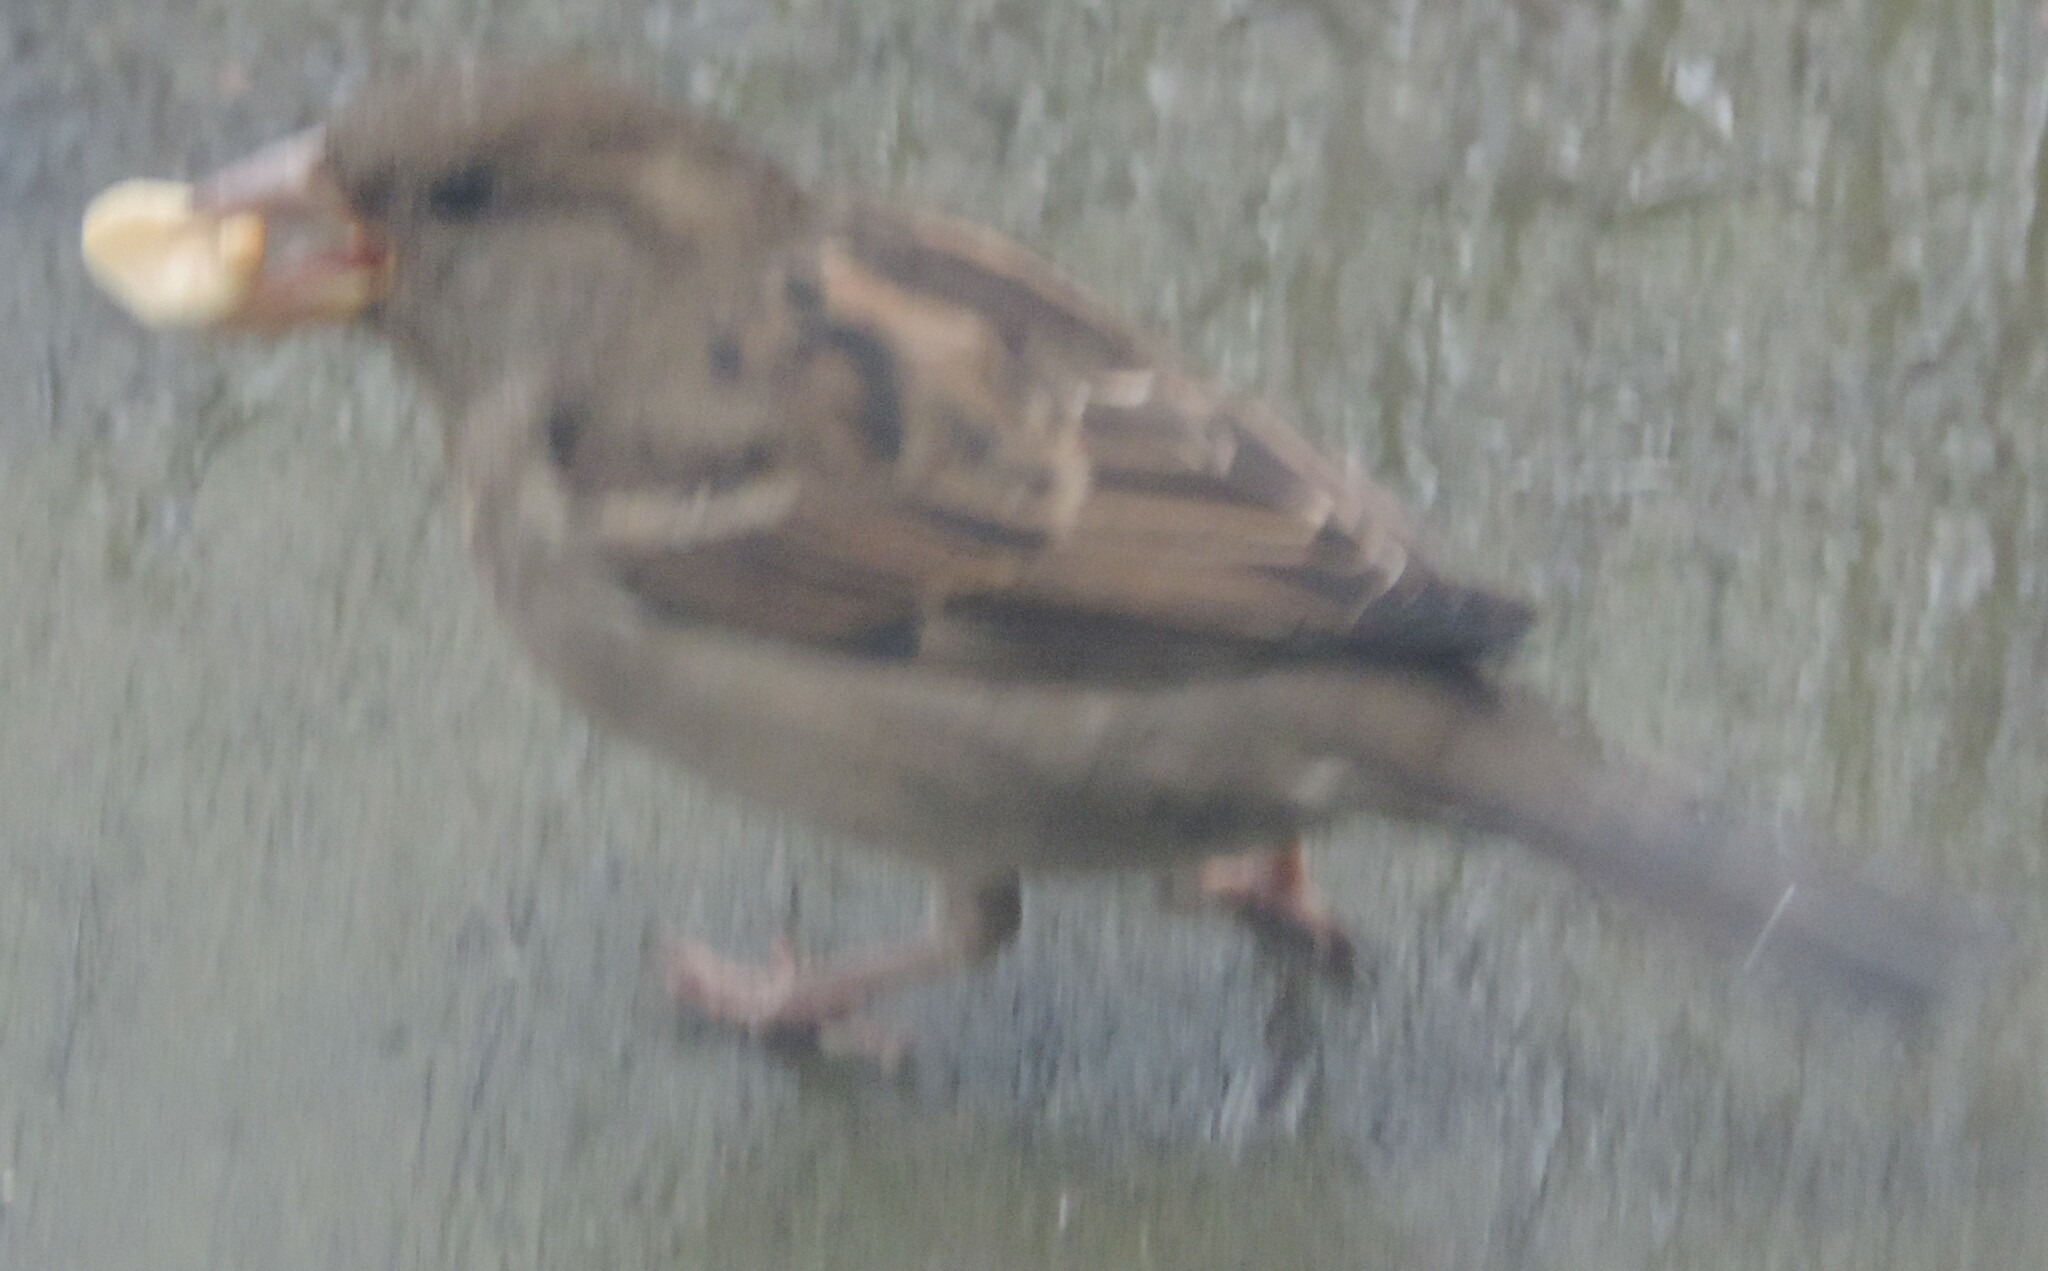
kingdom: Animalia
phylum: Chordata
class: Aves
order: Passeriformes
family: Passeridae
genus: Passer
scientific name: Passer domesticus
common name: House sparrow
